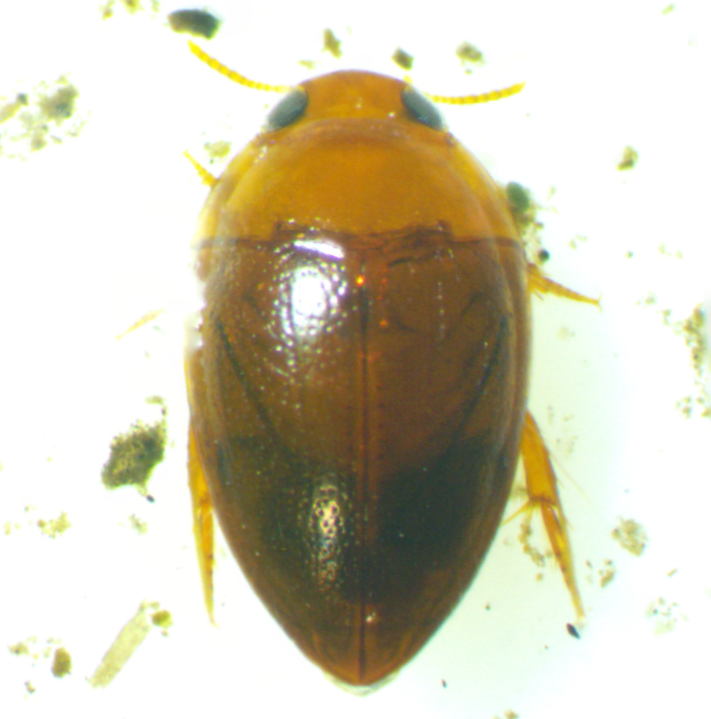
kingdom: Animalia
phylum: Arthropoda
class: Insecta
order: Coleoptera
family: Noteridae
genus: Suphisellus
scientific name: Suphisellus gibbulus
